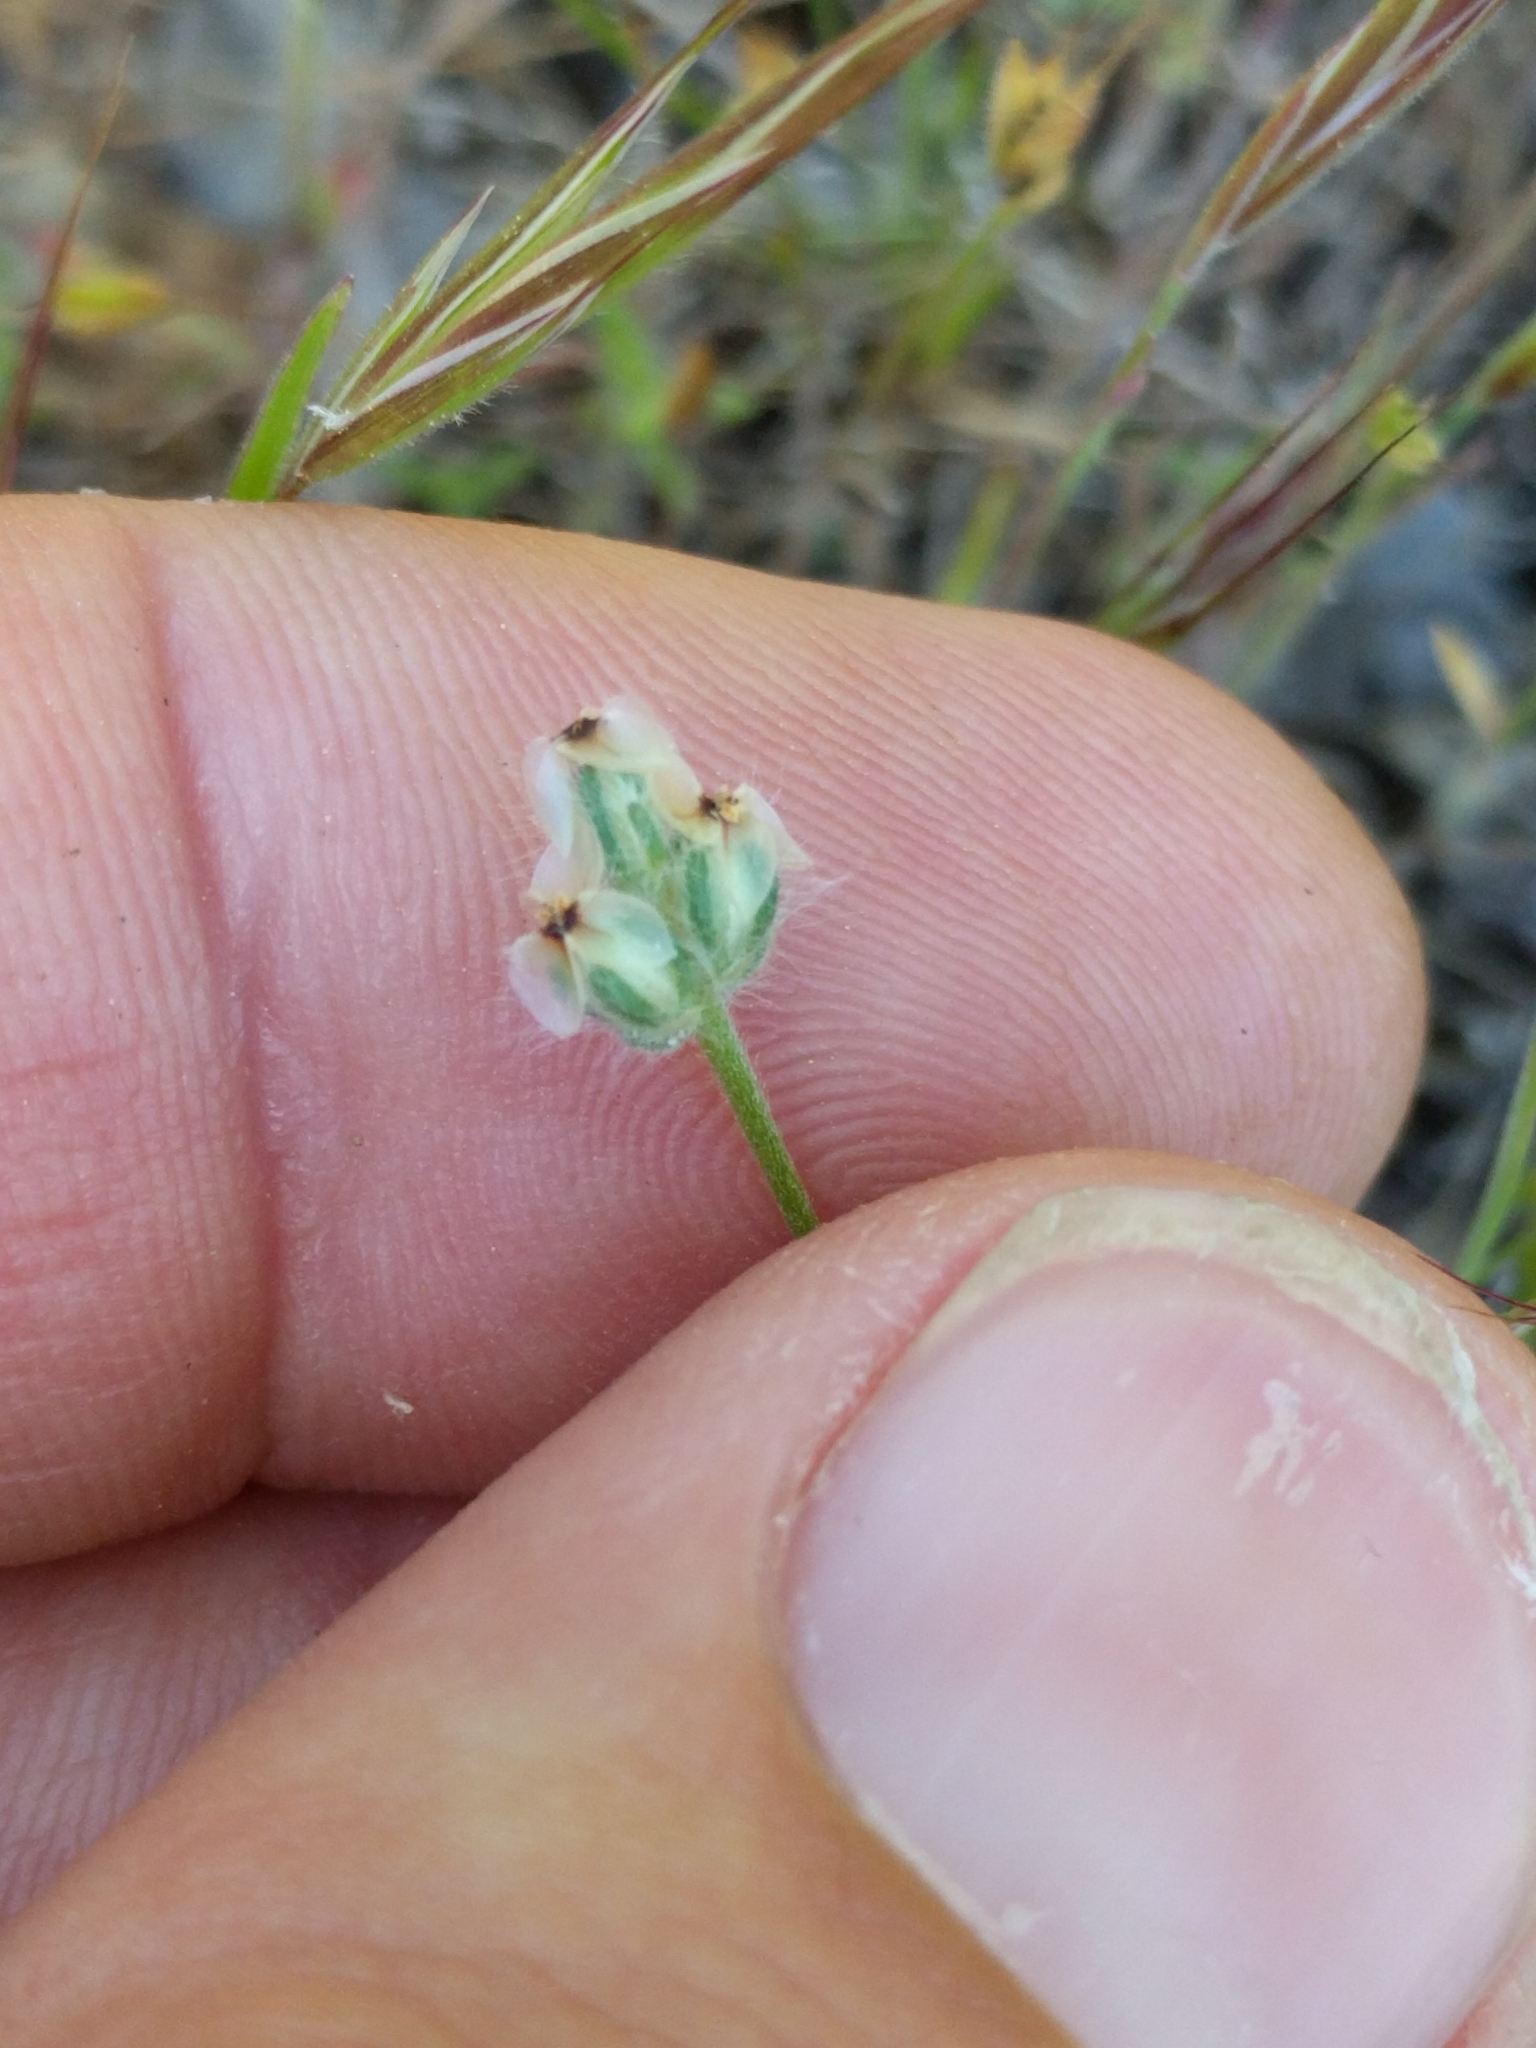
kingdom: Plantae
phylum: Tracheophyta
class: Magnoliopsida
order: Lamiales
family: Plantaginaceae
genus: Plantago
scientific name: Plantago erecta
